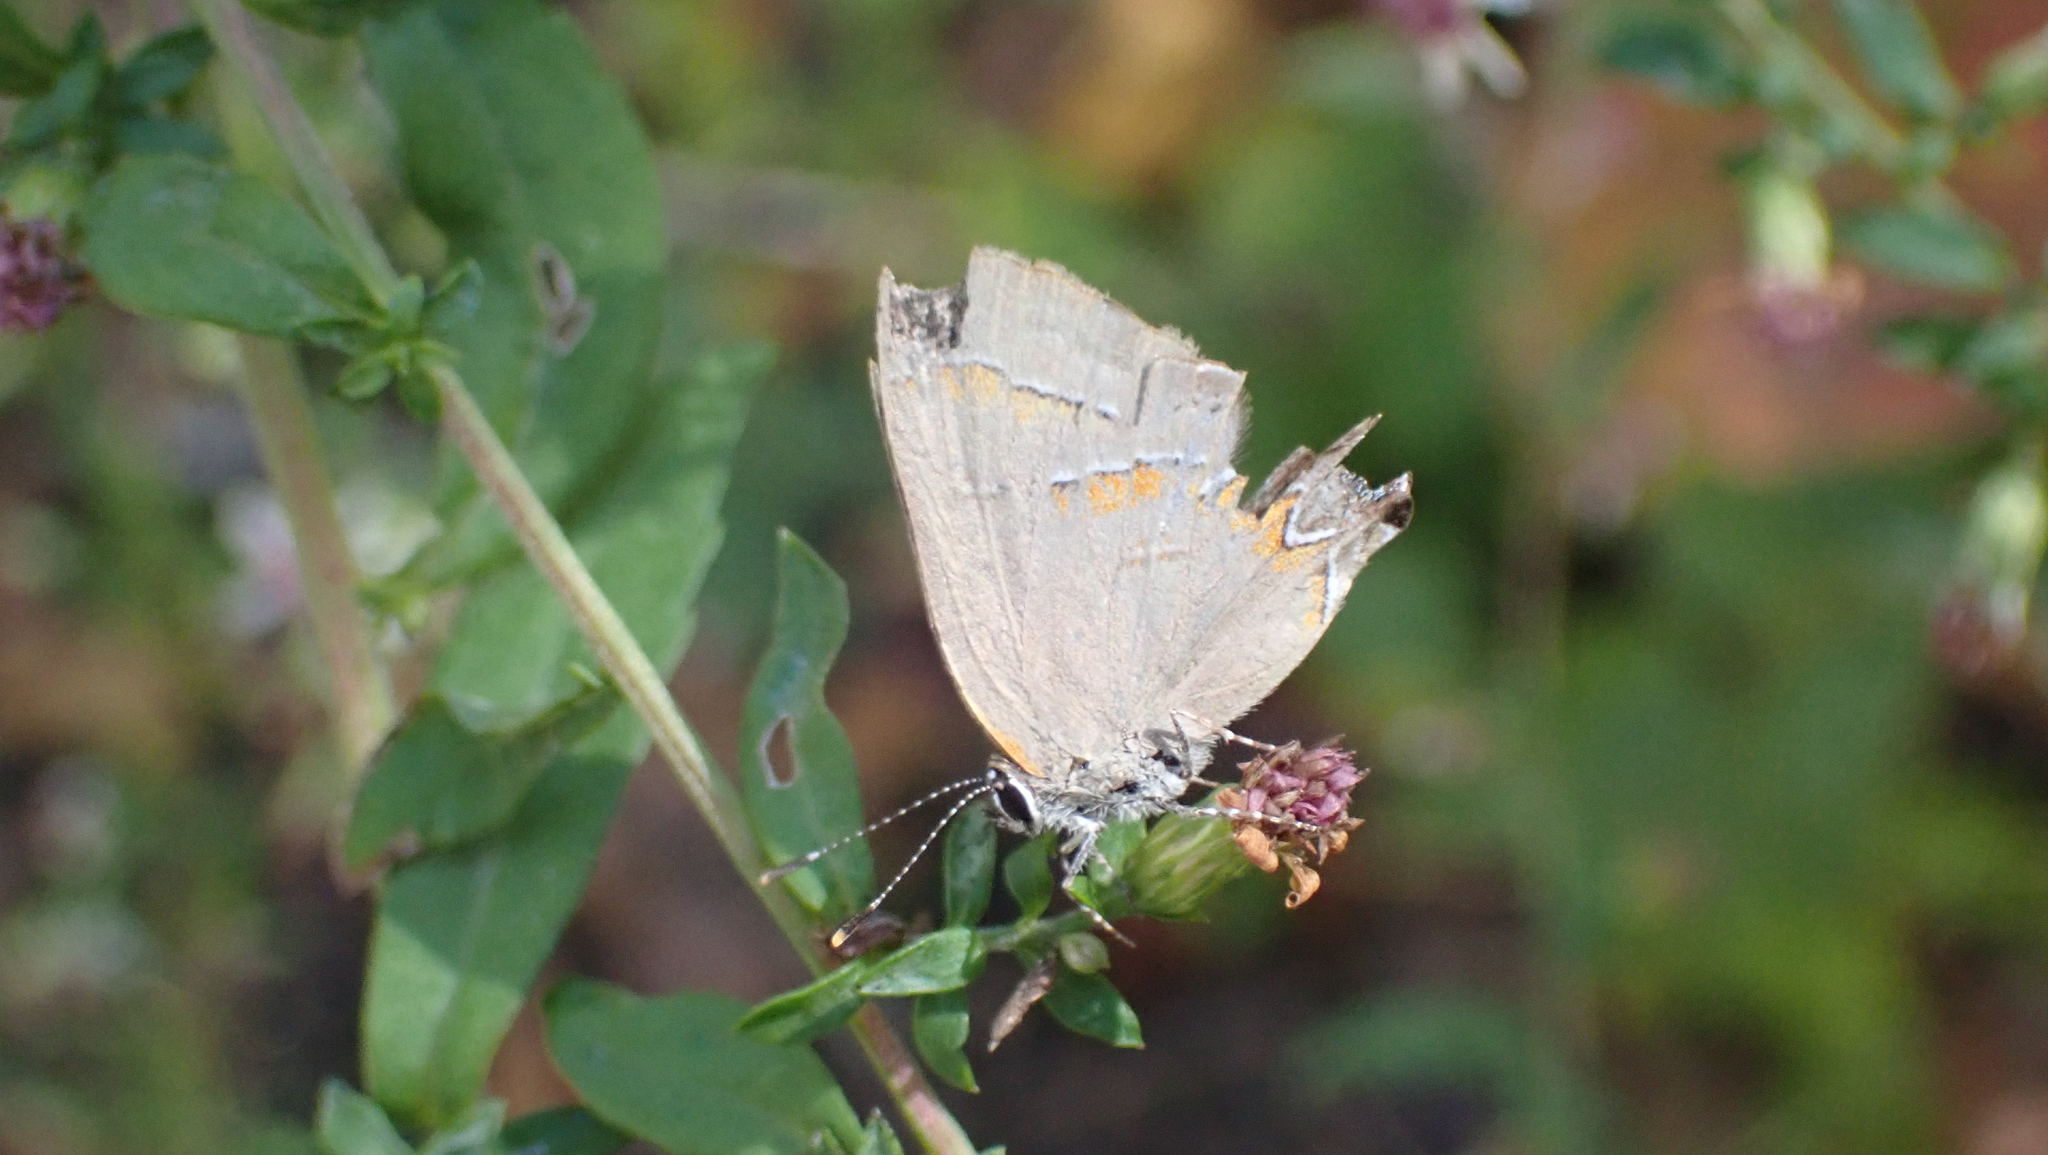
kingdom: Animalia
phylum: Arthropoda
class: Insecta
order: Lepidoptera
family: Lycaenidae
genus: Calycopis
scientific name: Calycopis cecrops
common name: Red-banded hairstreak
